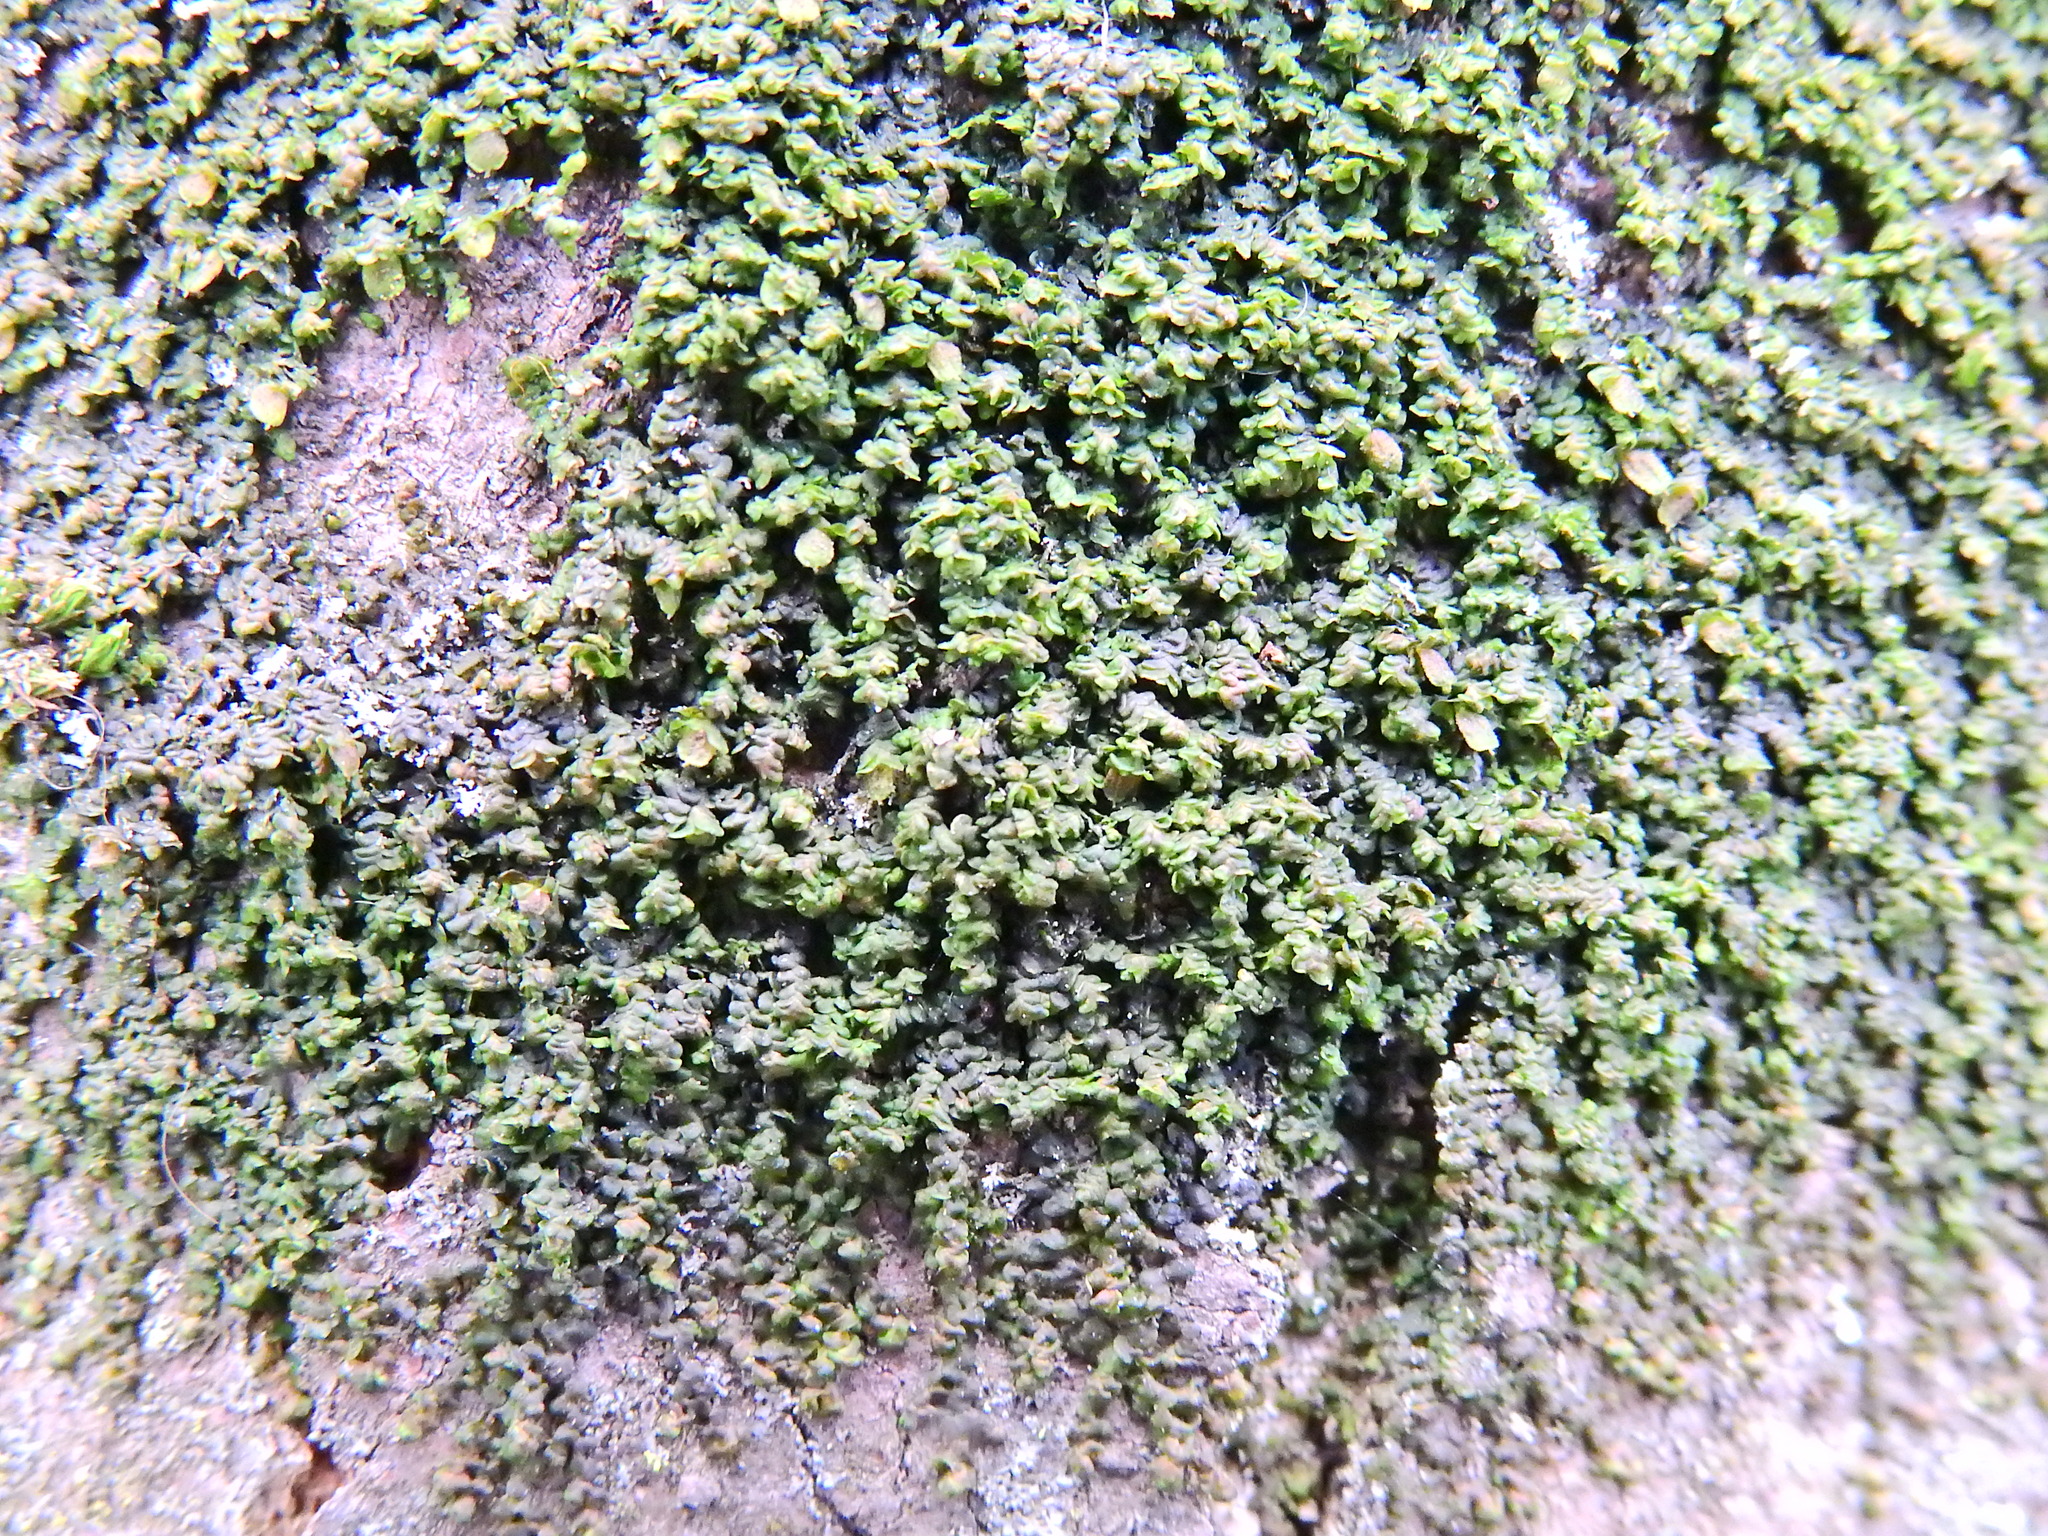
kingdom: Plantae
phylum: Marchantiophyta
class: Jungermanniopsida
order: Porellales
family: Frullaniaceae
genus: Frullania
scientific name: Frullania dilatata
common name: Dilated scalewort
